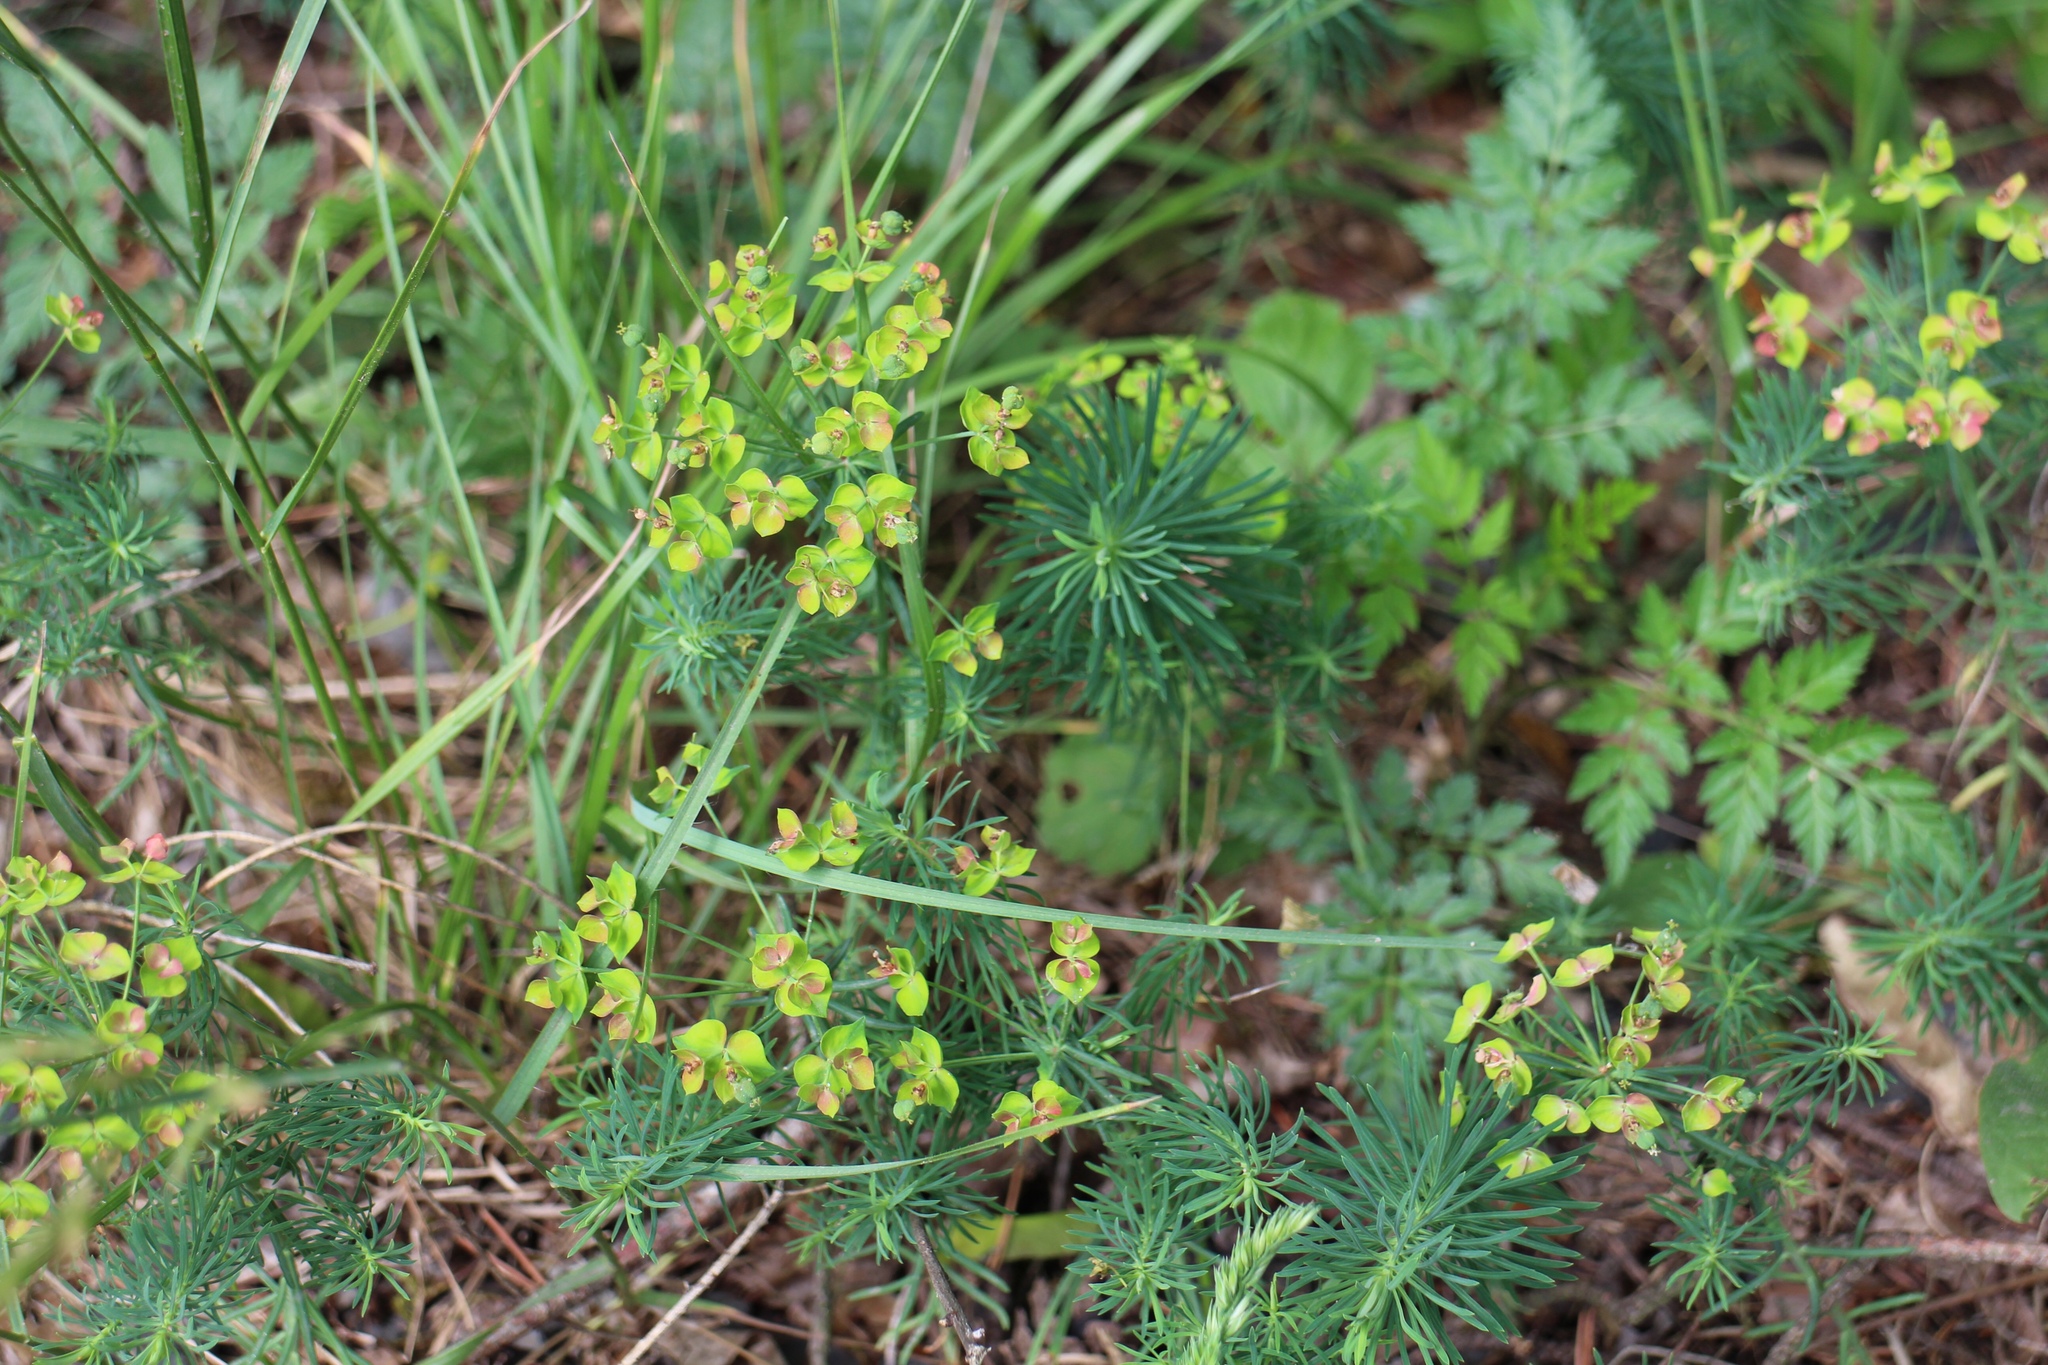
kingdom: Plantae
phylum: Tracheophyta
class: Magnoliopsida
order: Malpighiales
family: Euphorbiaceae
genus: Euphorbia
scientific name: Euphorbia cyparissias
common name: Cypress spurge
